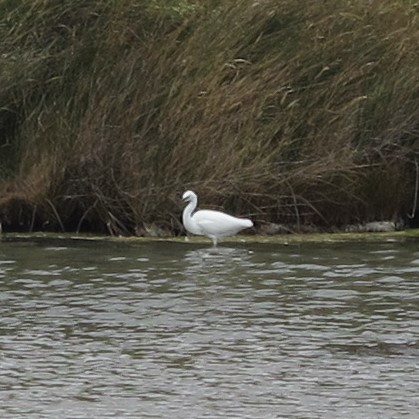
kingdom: Animalia
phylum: Chordata
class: Aves
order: Pelecaniformes
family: Ardeidae
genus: Egretta
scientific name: Egretta garzetta
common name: Little egret
